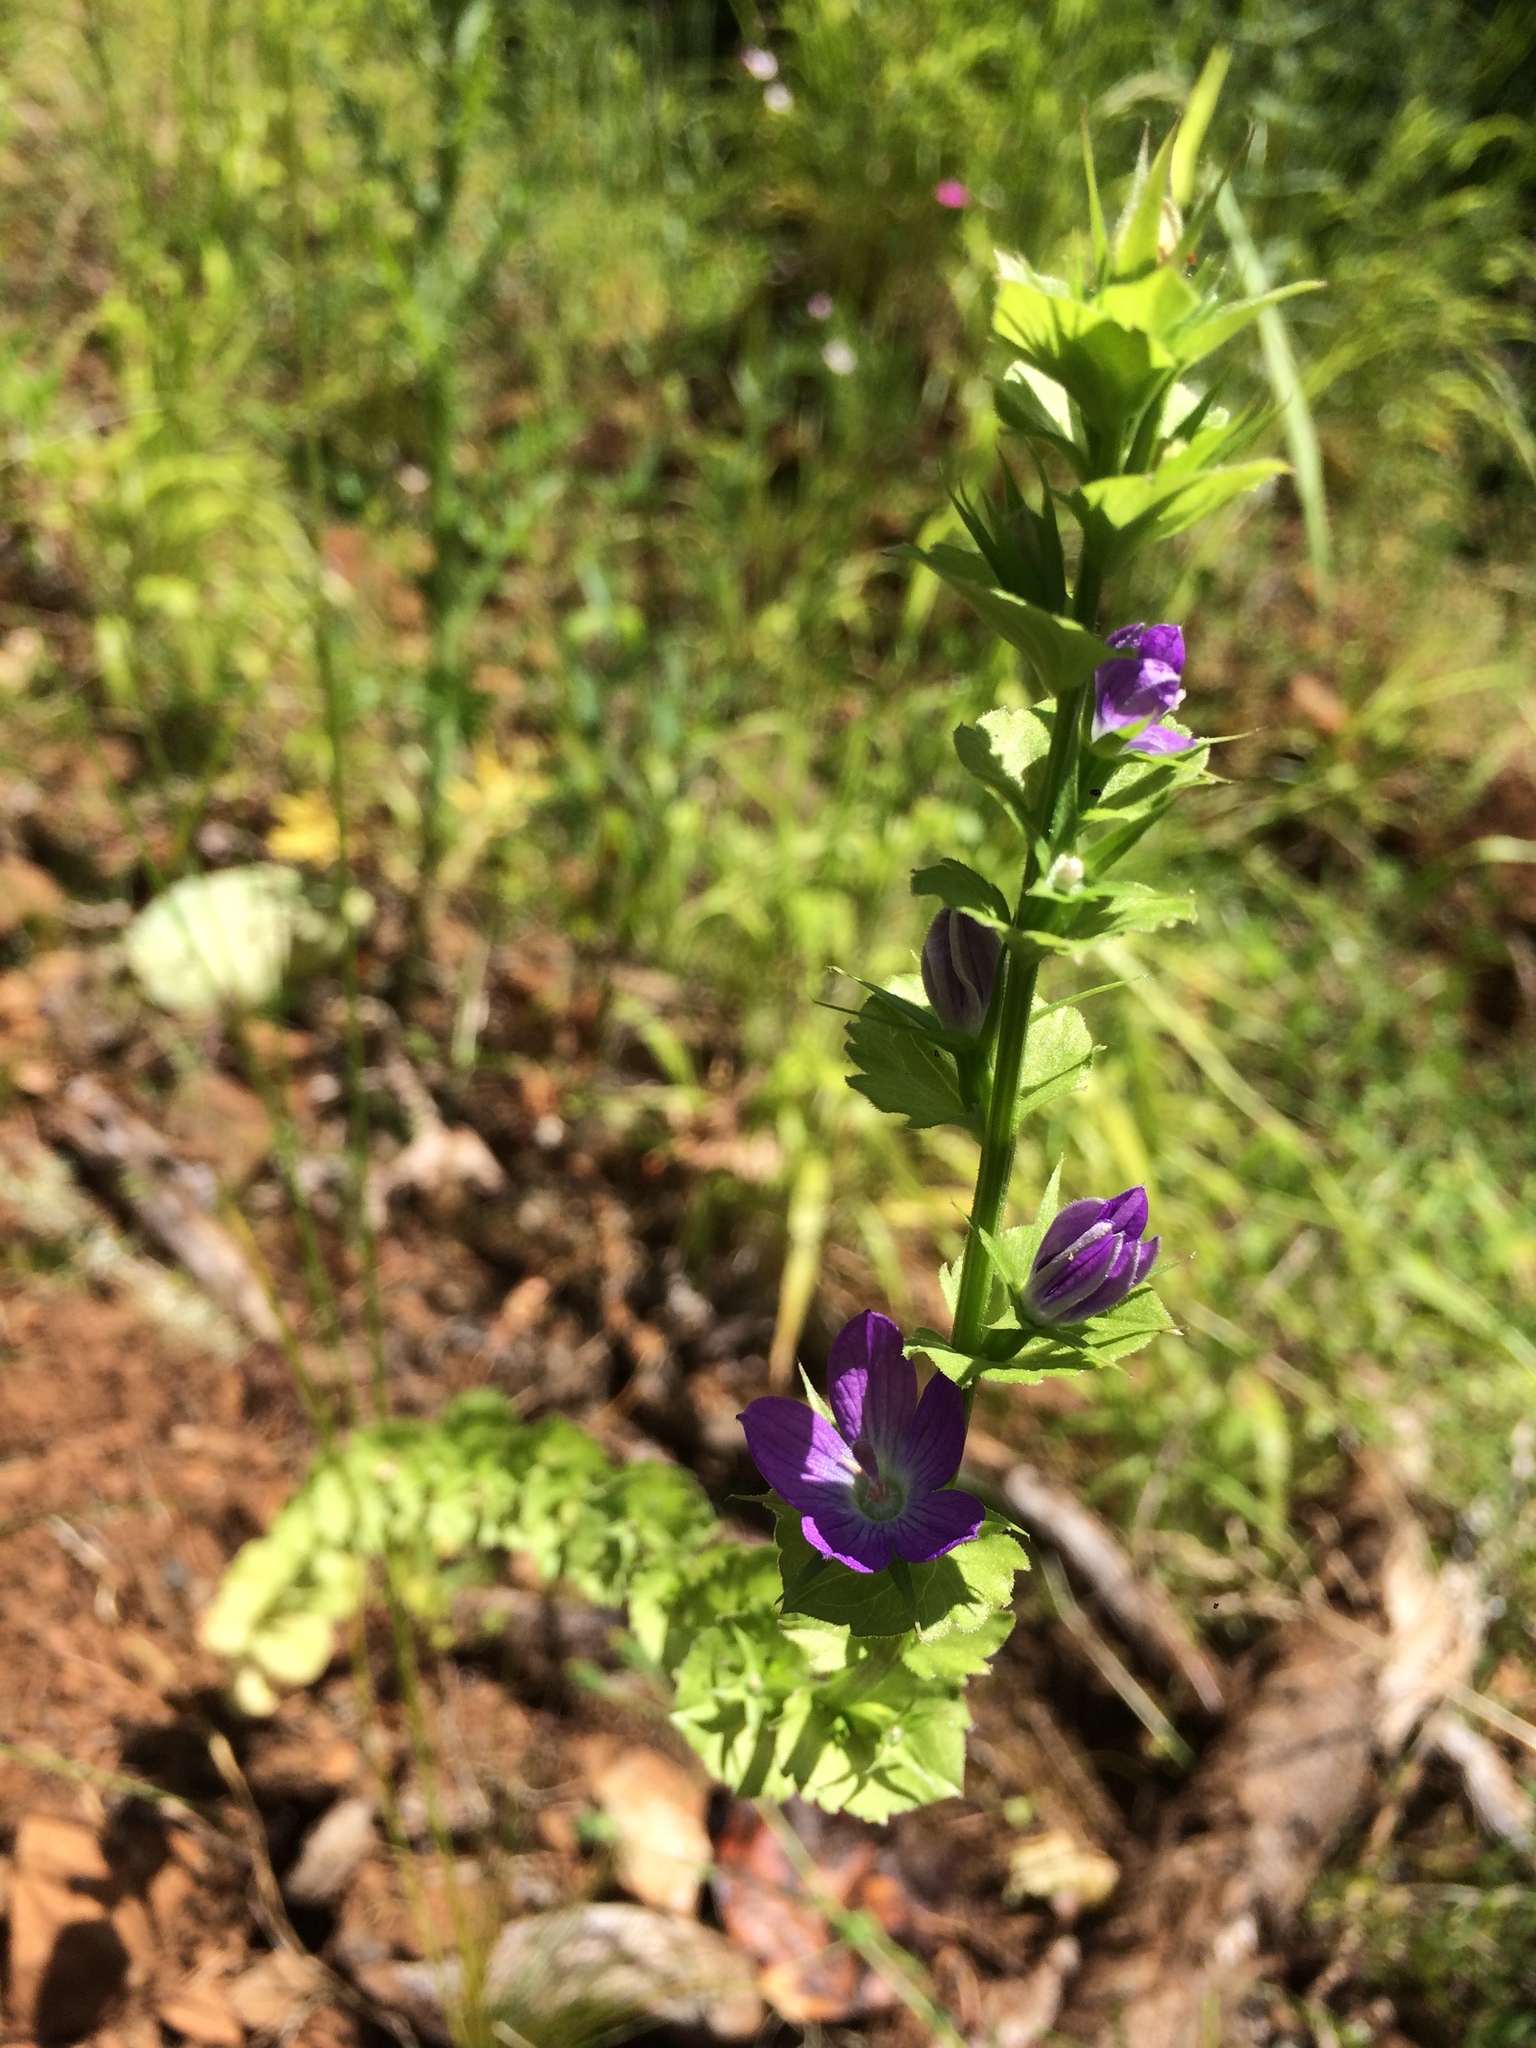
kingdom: Plantae
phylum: Tracheophyta
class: Magnoliopsida
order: Asterales
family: Campanulaceae
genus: Triodanis
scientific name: Triodanis perfoliata
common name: Clasping venus' looking-glass
